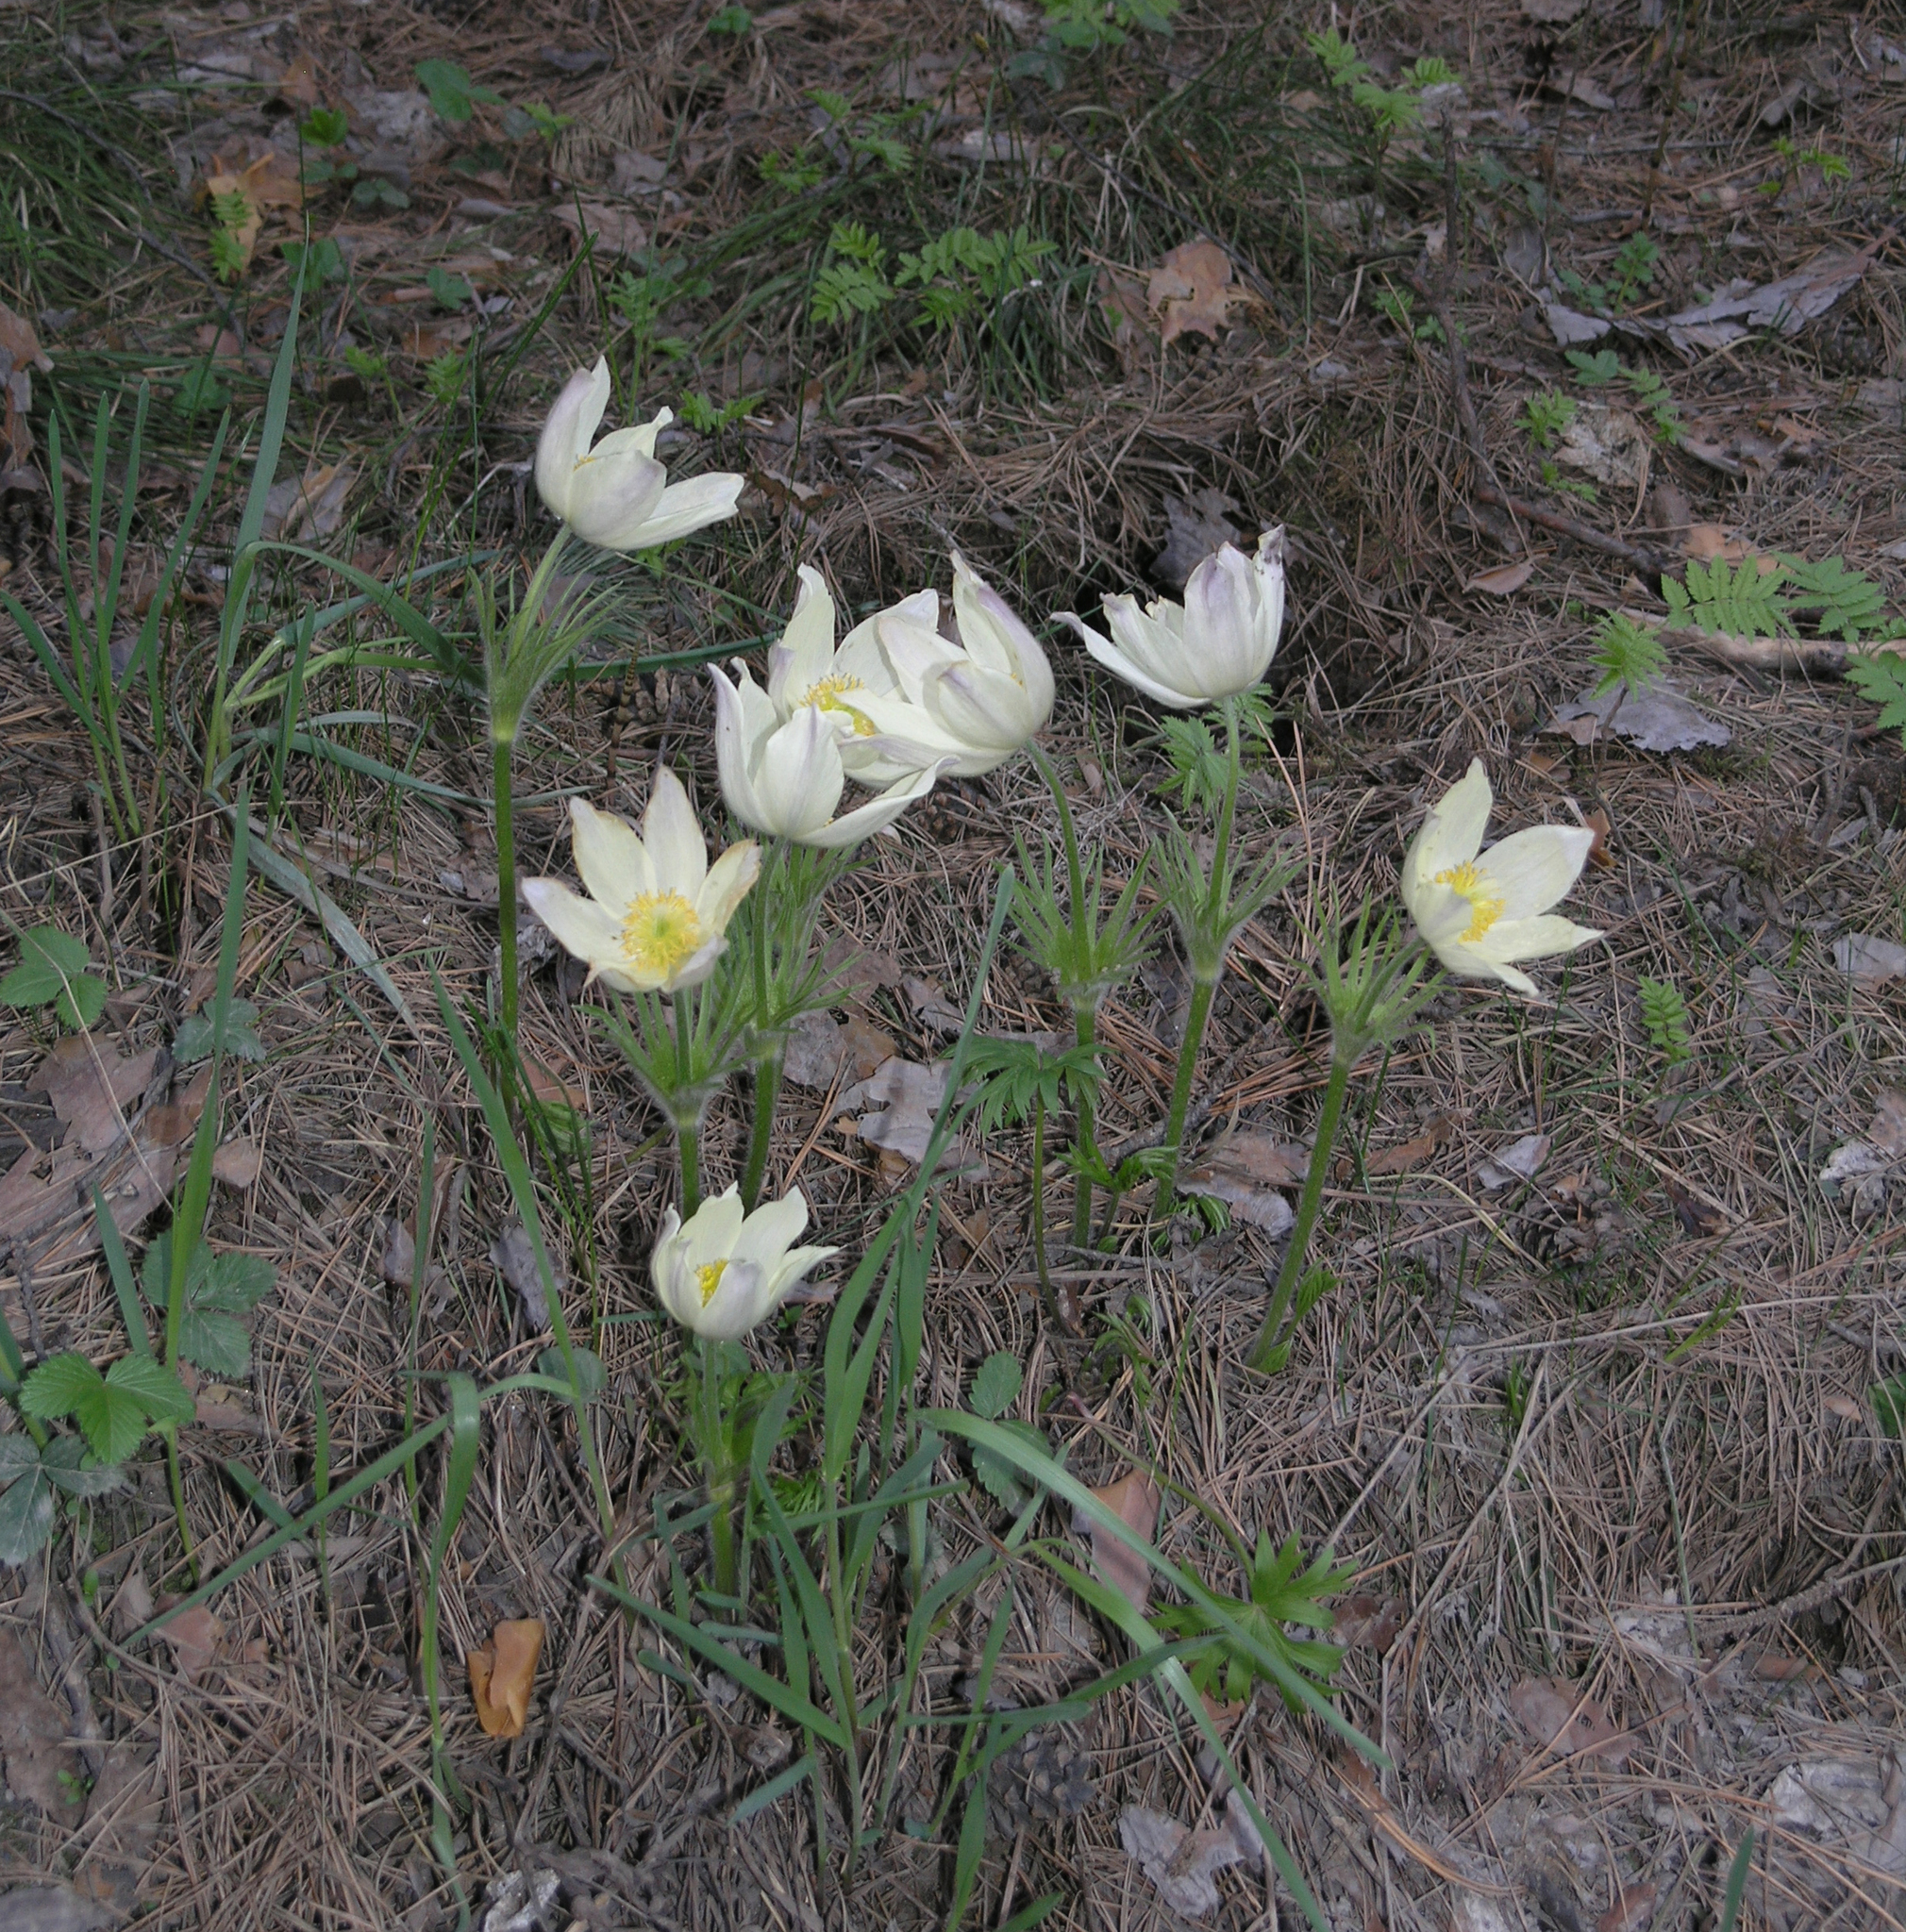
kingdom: Plantae
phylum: Tracheophyta
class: Magnoliopsida
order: Ranunculales
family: Ranunculaceae
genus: Pulsatilla
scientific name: Pulsatilla patens
